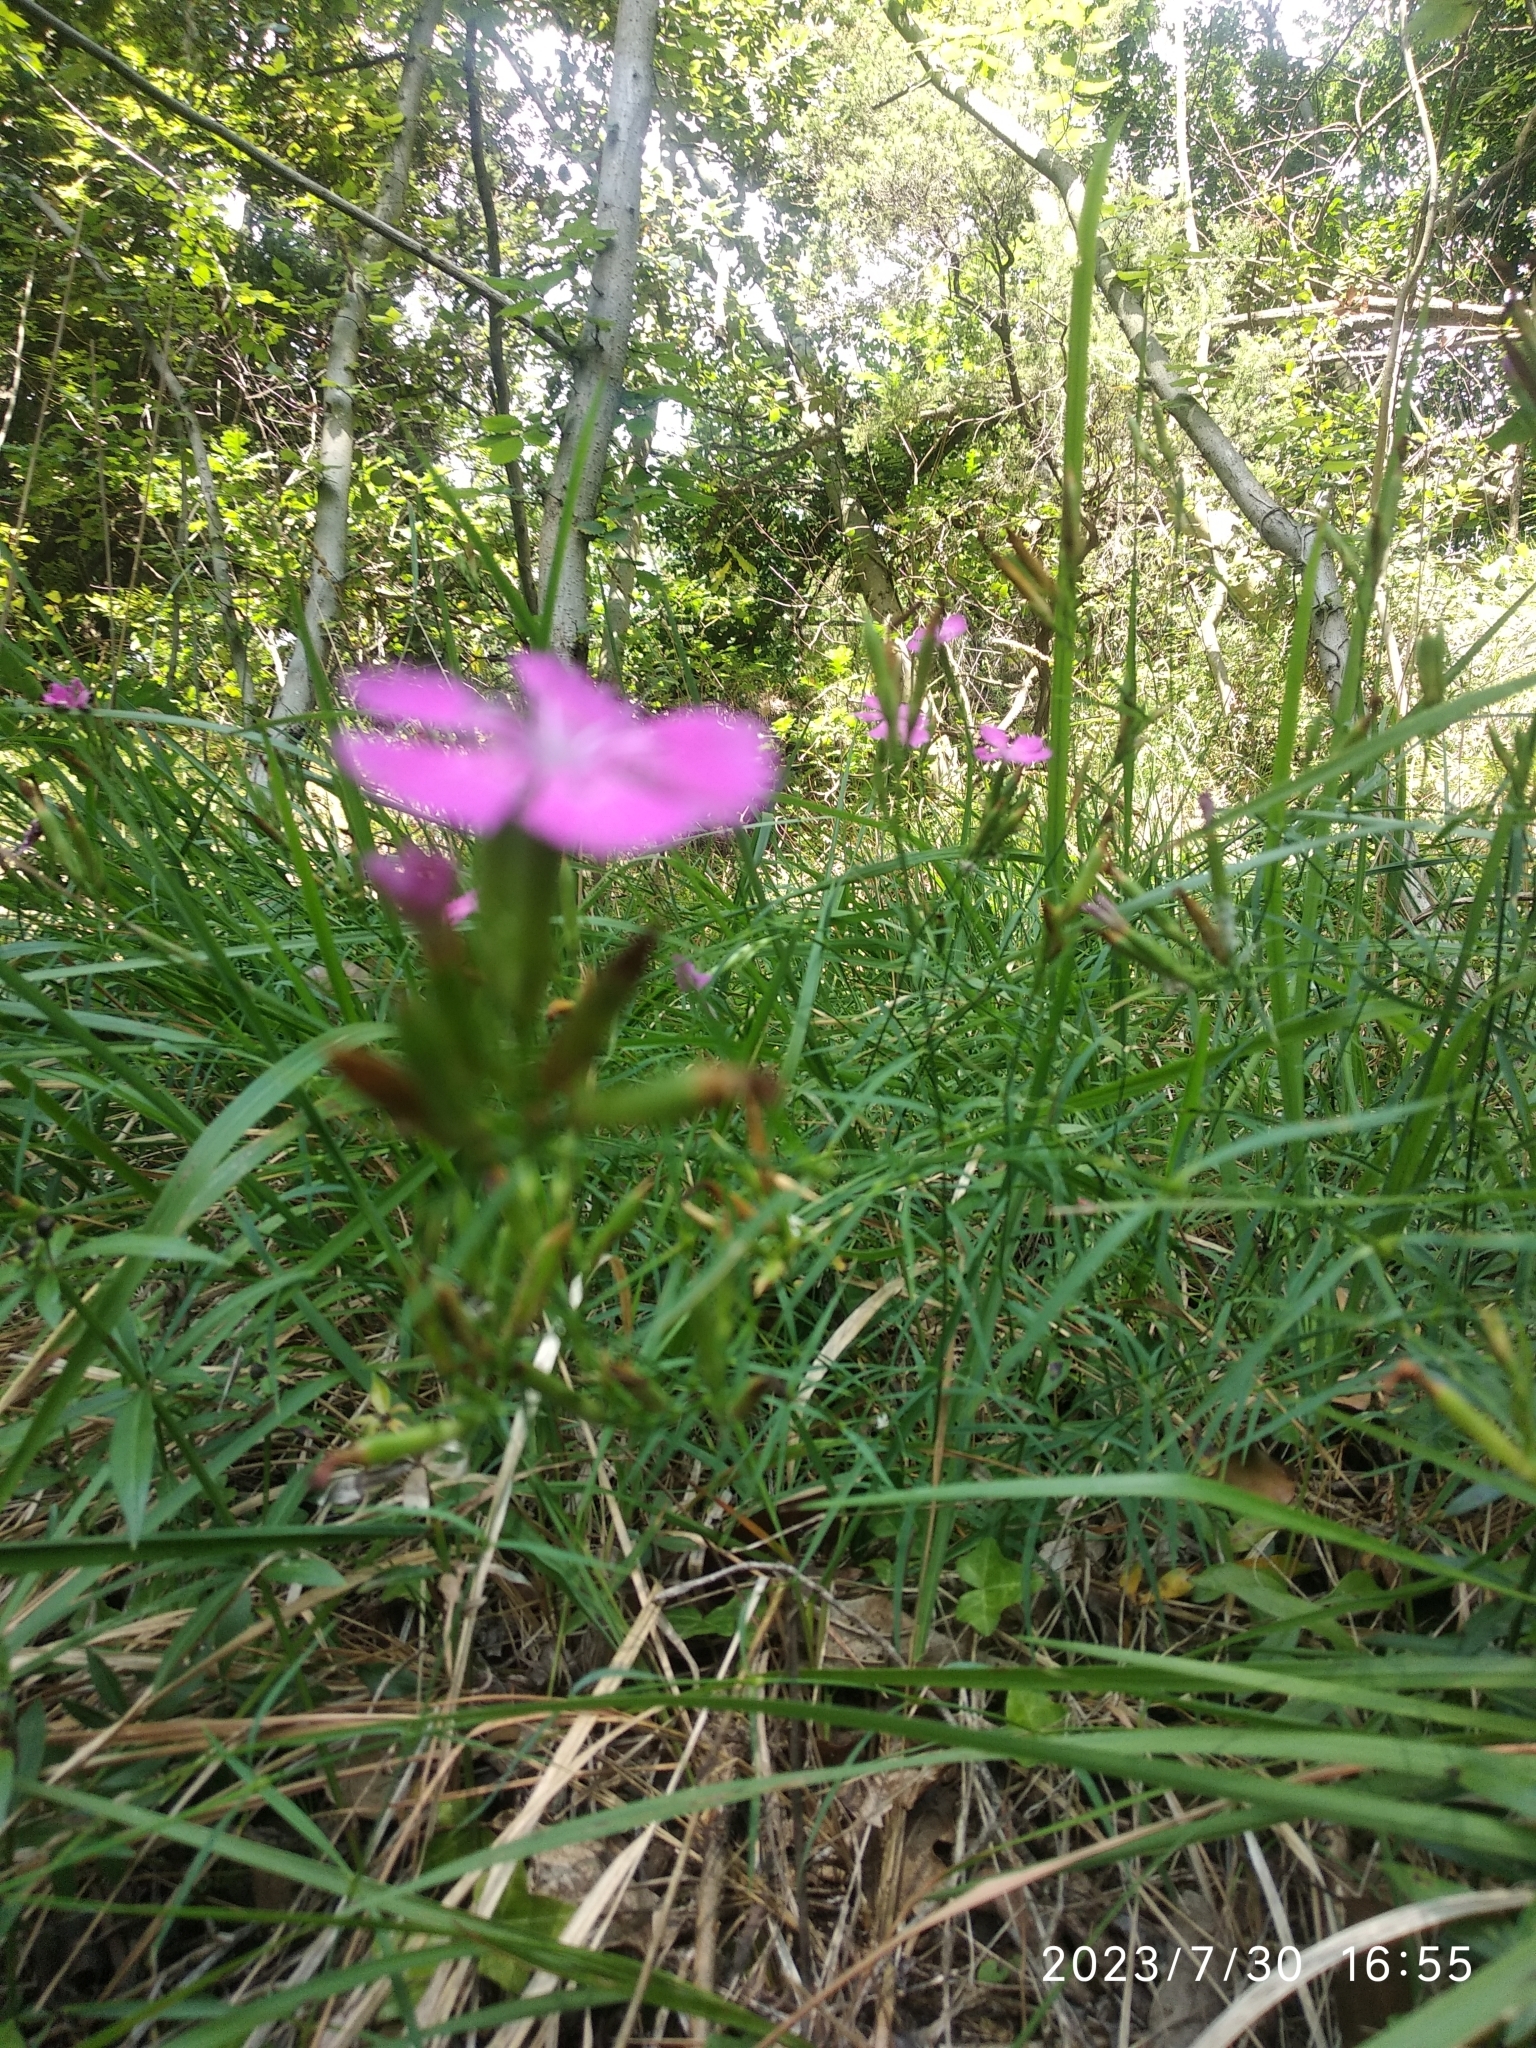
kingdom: Plantae
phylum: Tracheophyta
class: Magnoliopsida
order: Caryophyllales
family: Caryophyllaceae
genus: Dianthus
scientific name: Dianthus seguieri
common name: Ragged pink
